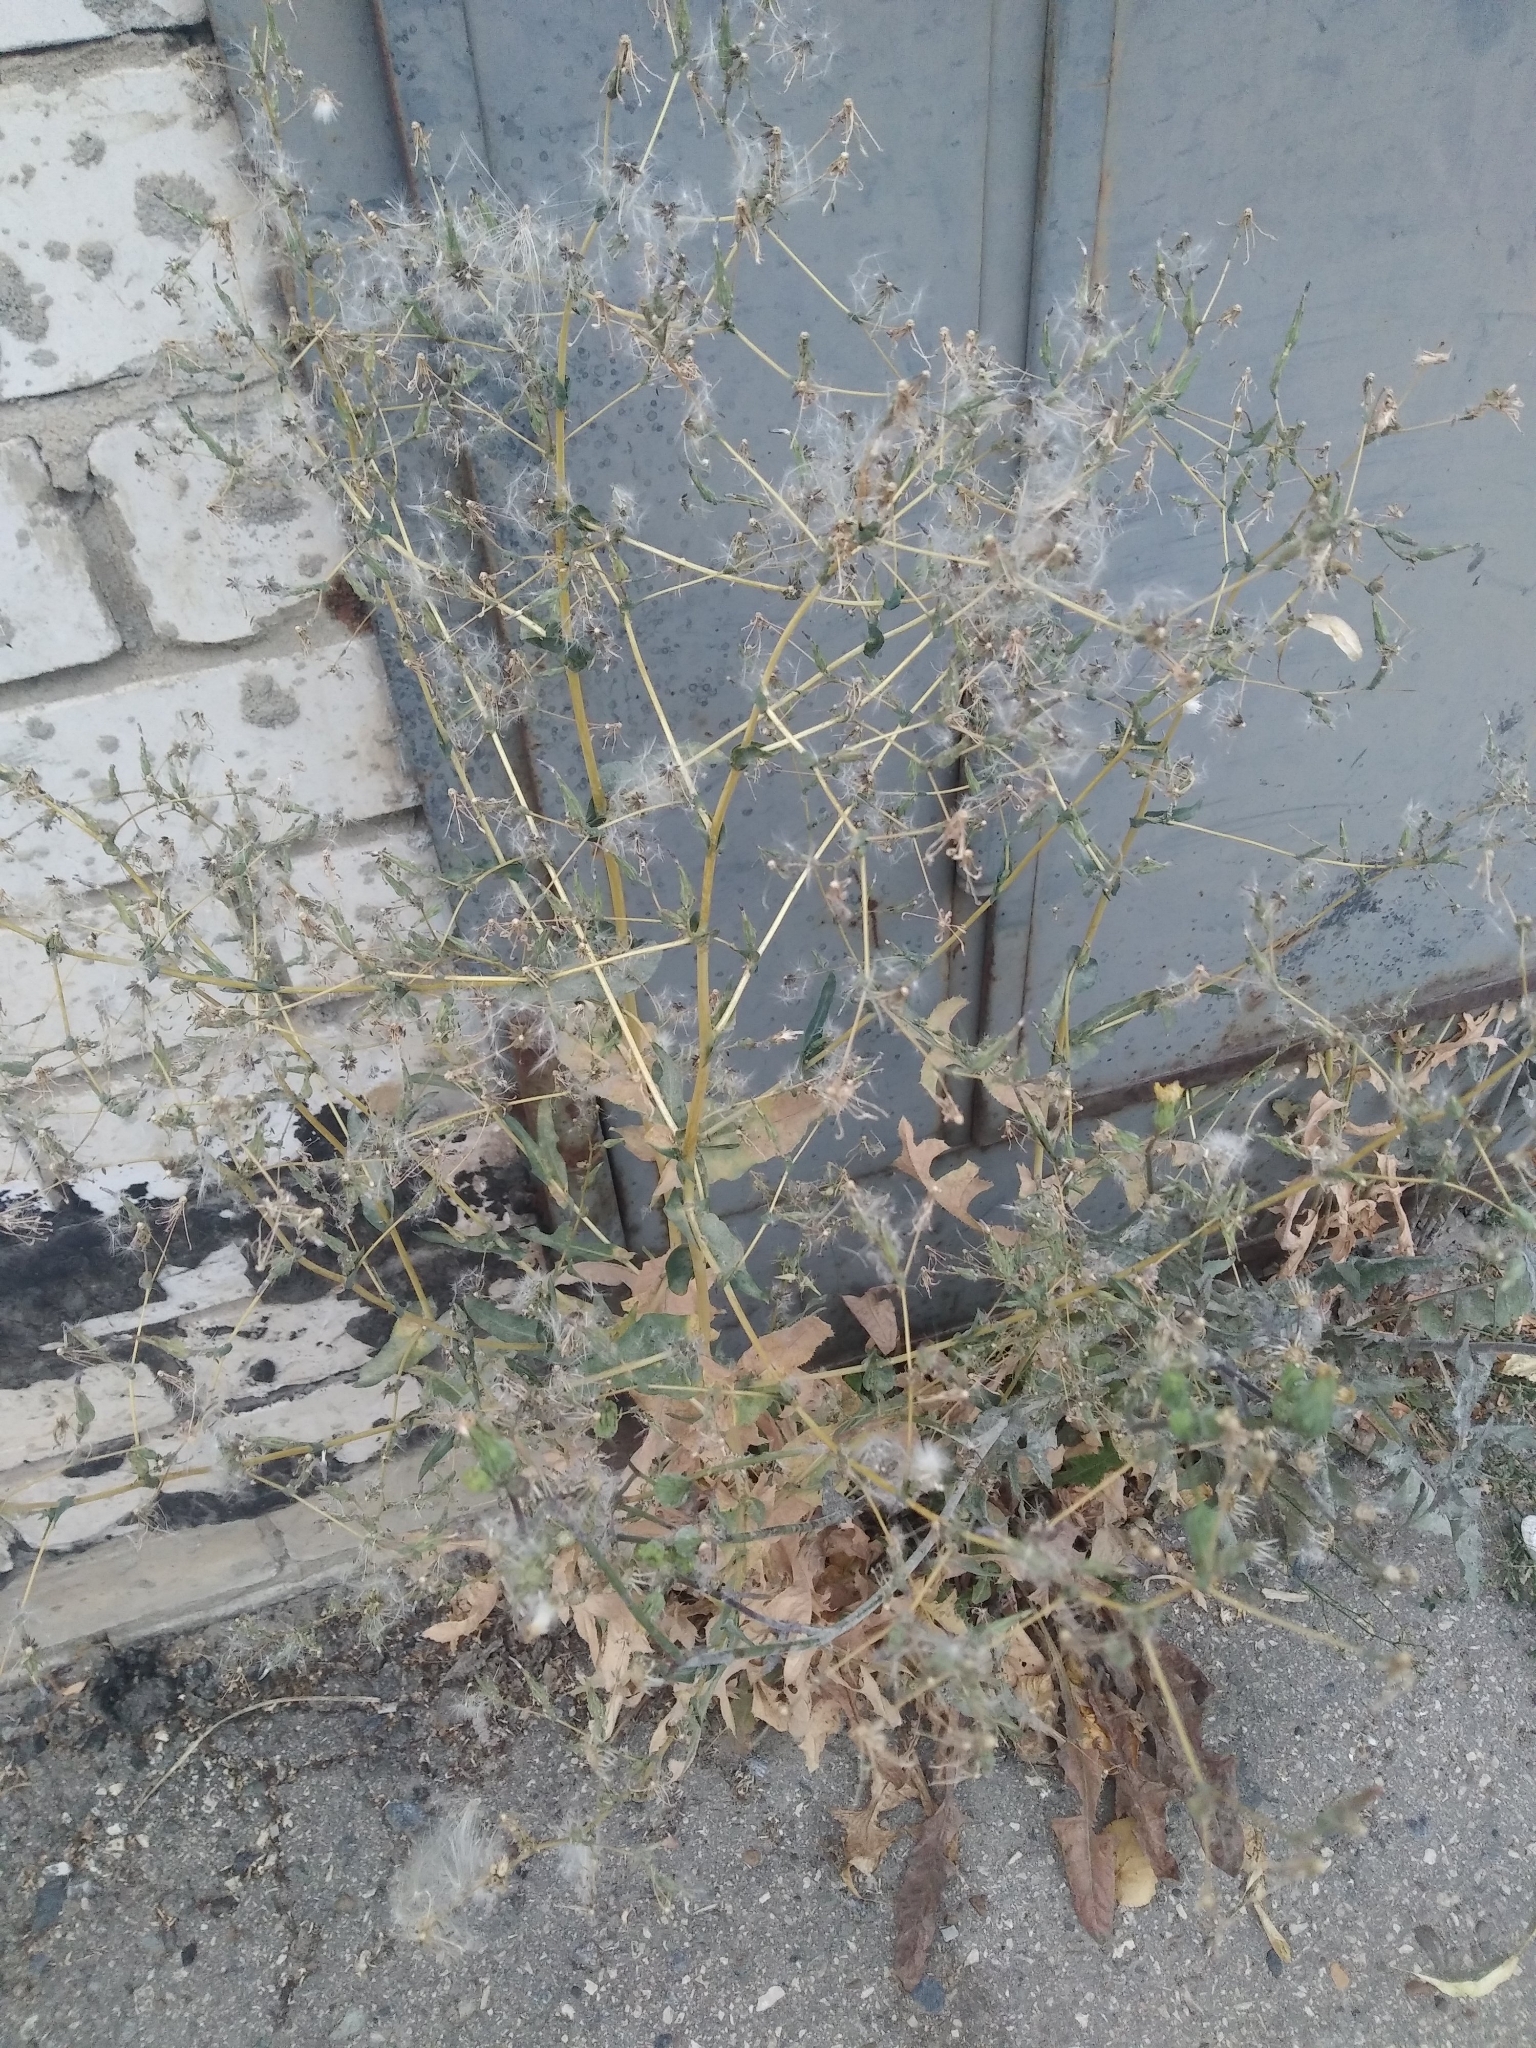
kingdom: Plantae
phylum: Tracheophyta
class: Magnoliopsida
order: Asterales
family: Asteraceae
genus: Lactuca
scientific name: Lactuca serriola
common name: Prickly lettuce
